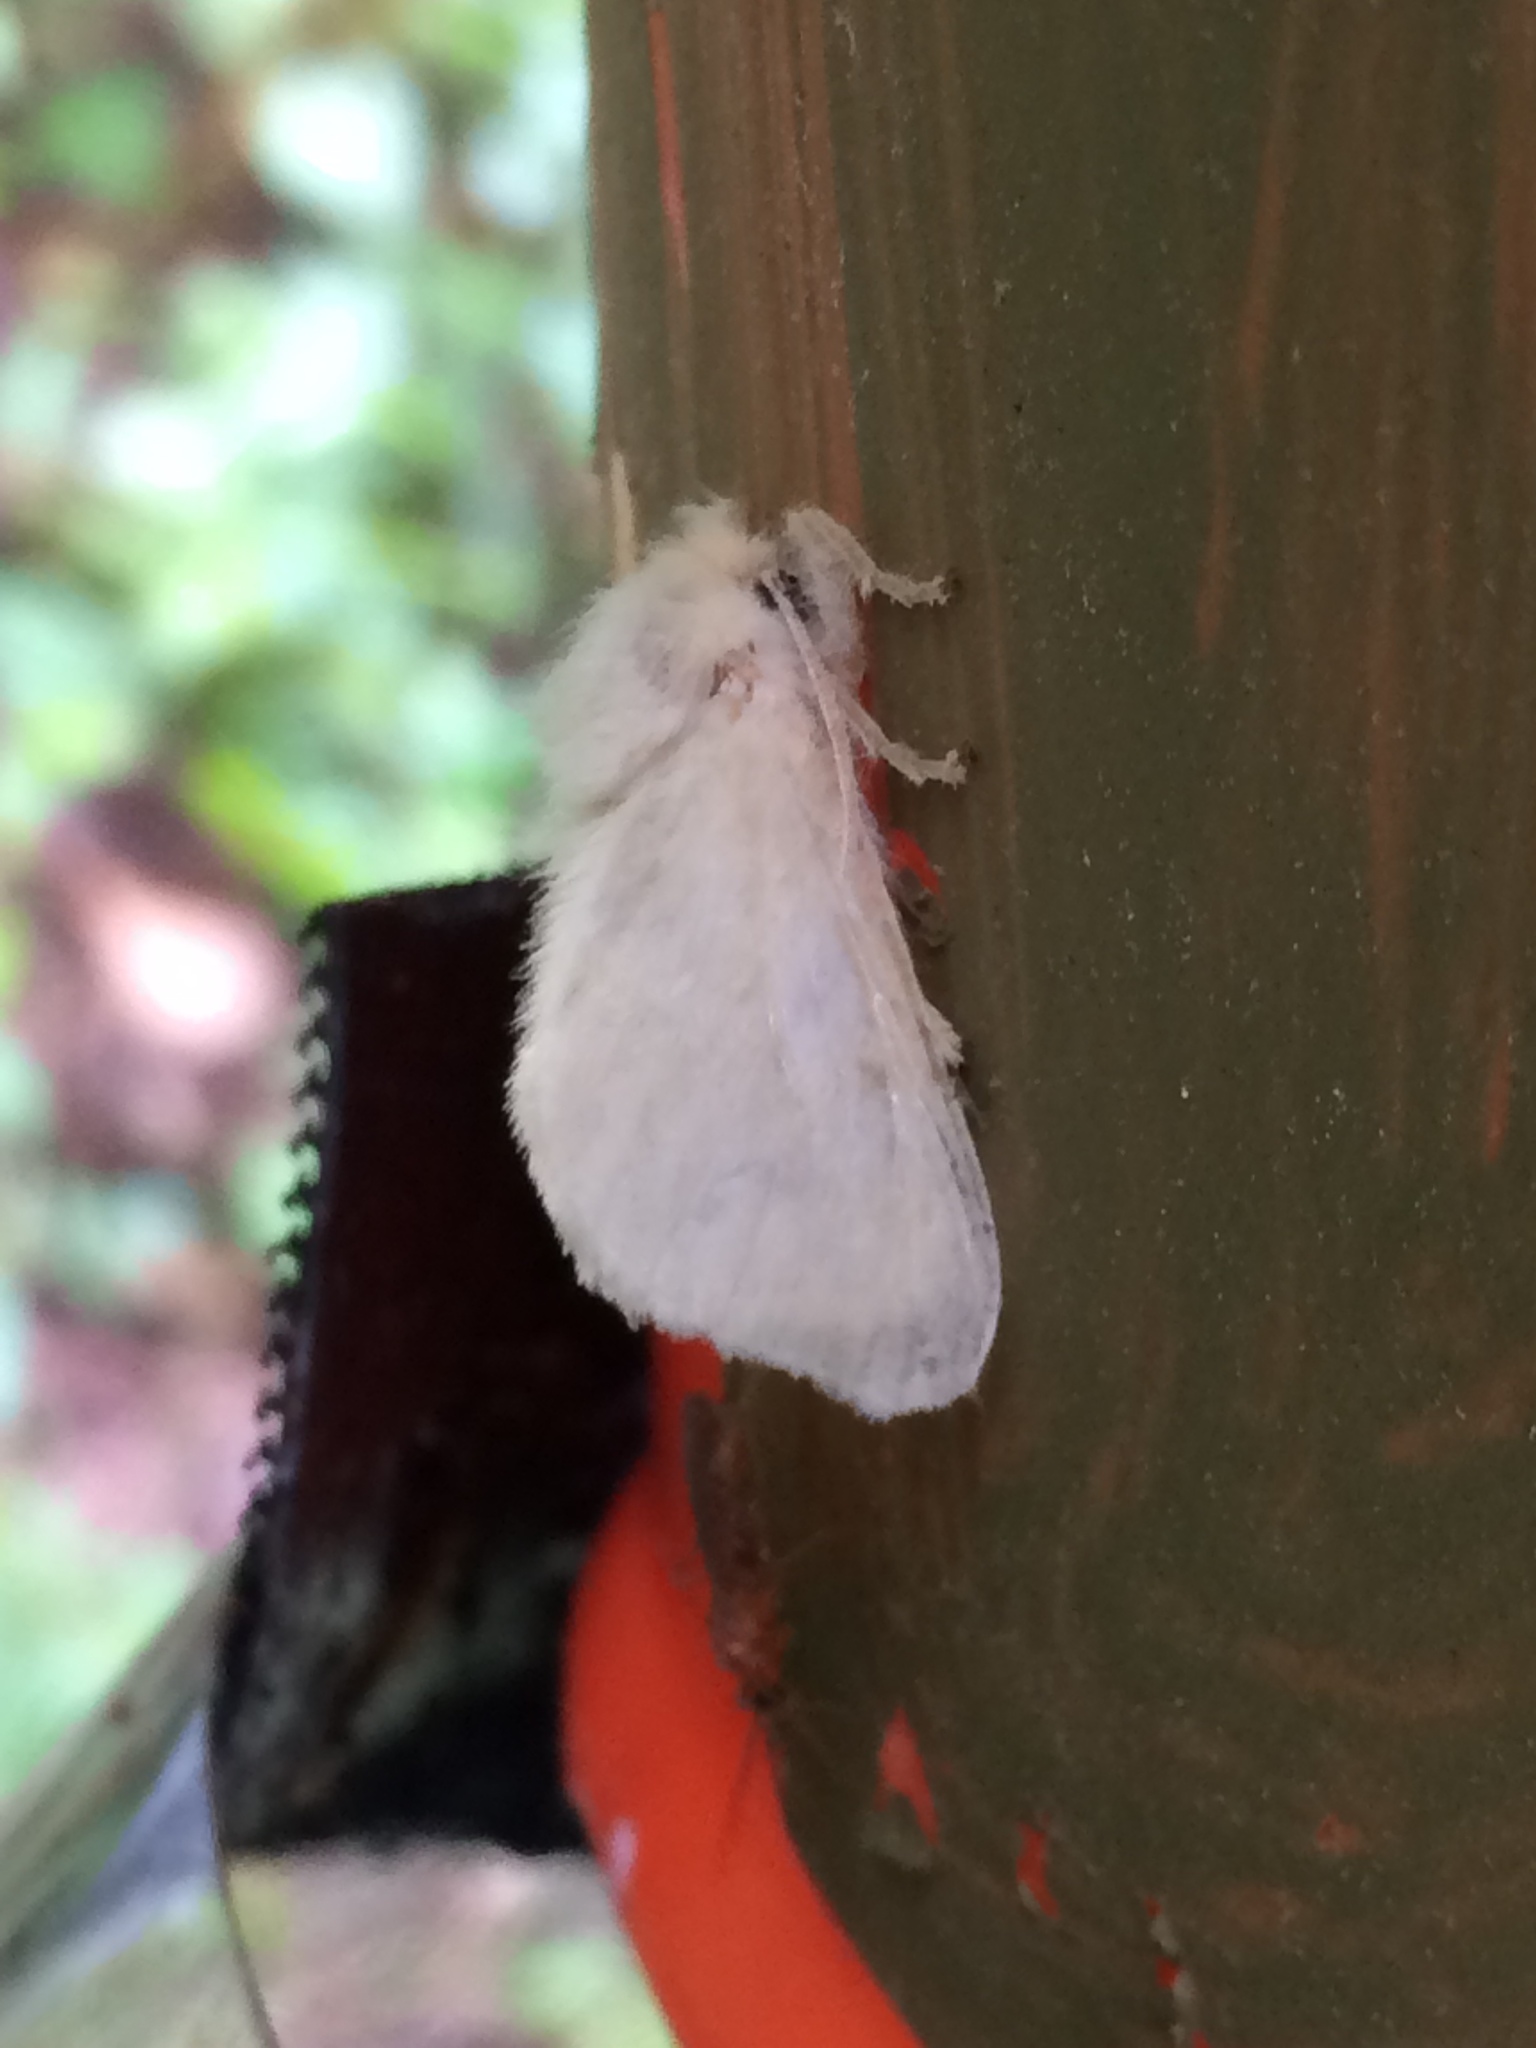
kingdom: Animalia
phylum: Arthropoda
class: Insecta
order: Lepidoptera
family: Megalopygidae
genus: Megalopyge
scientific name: Megalopyge crispata
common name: Black-waved flannel moth
